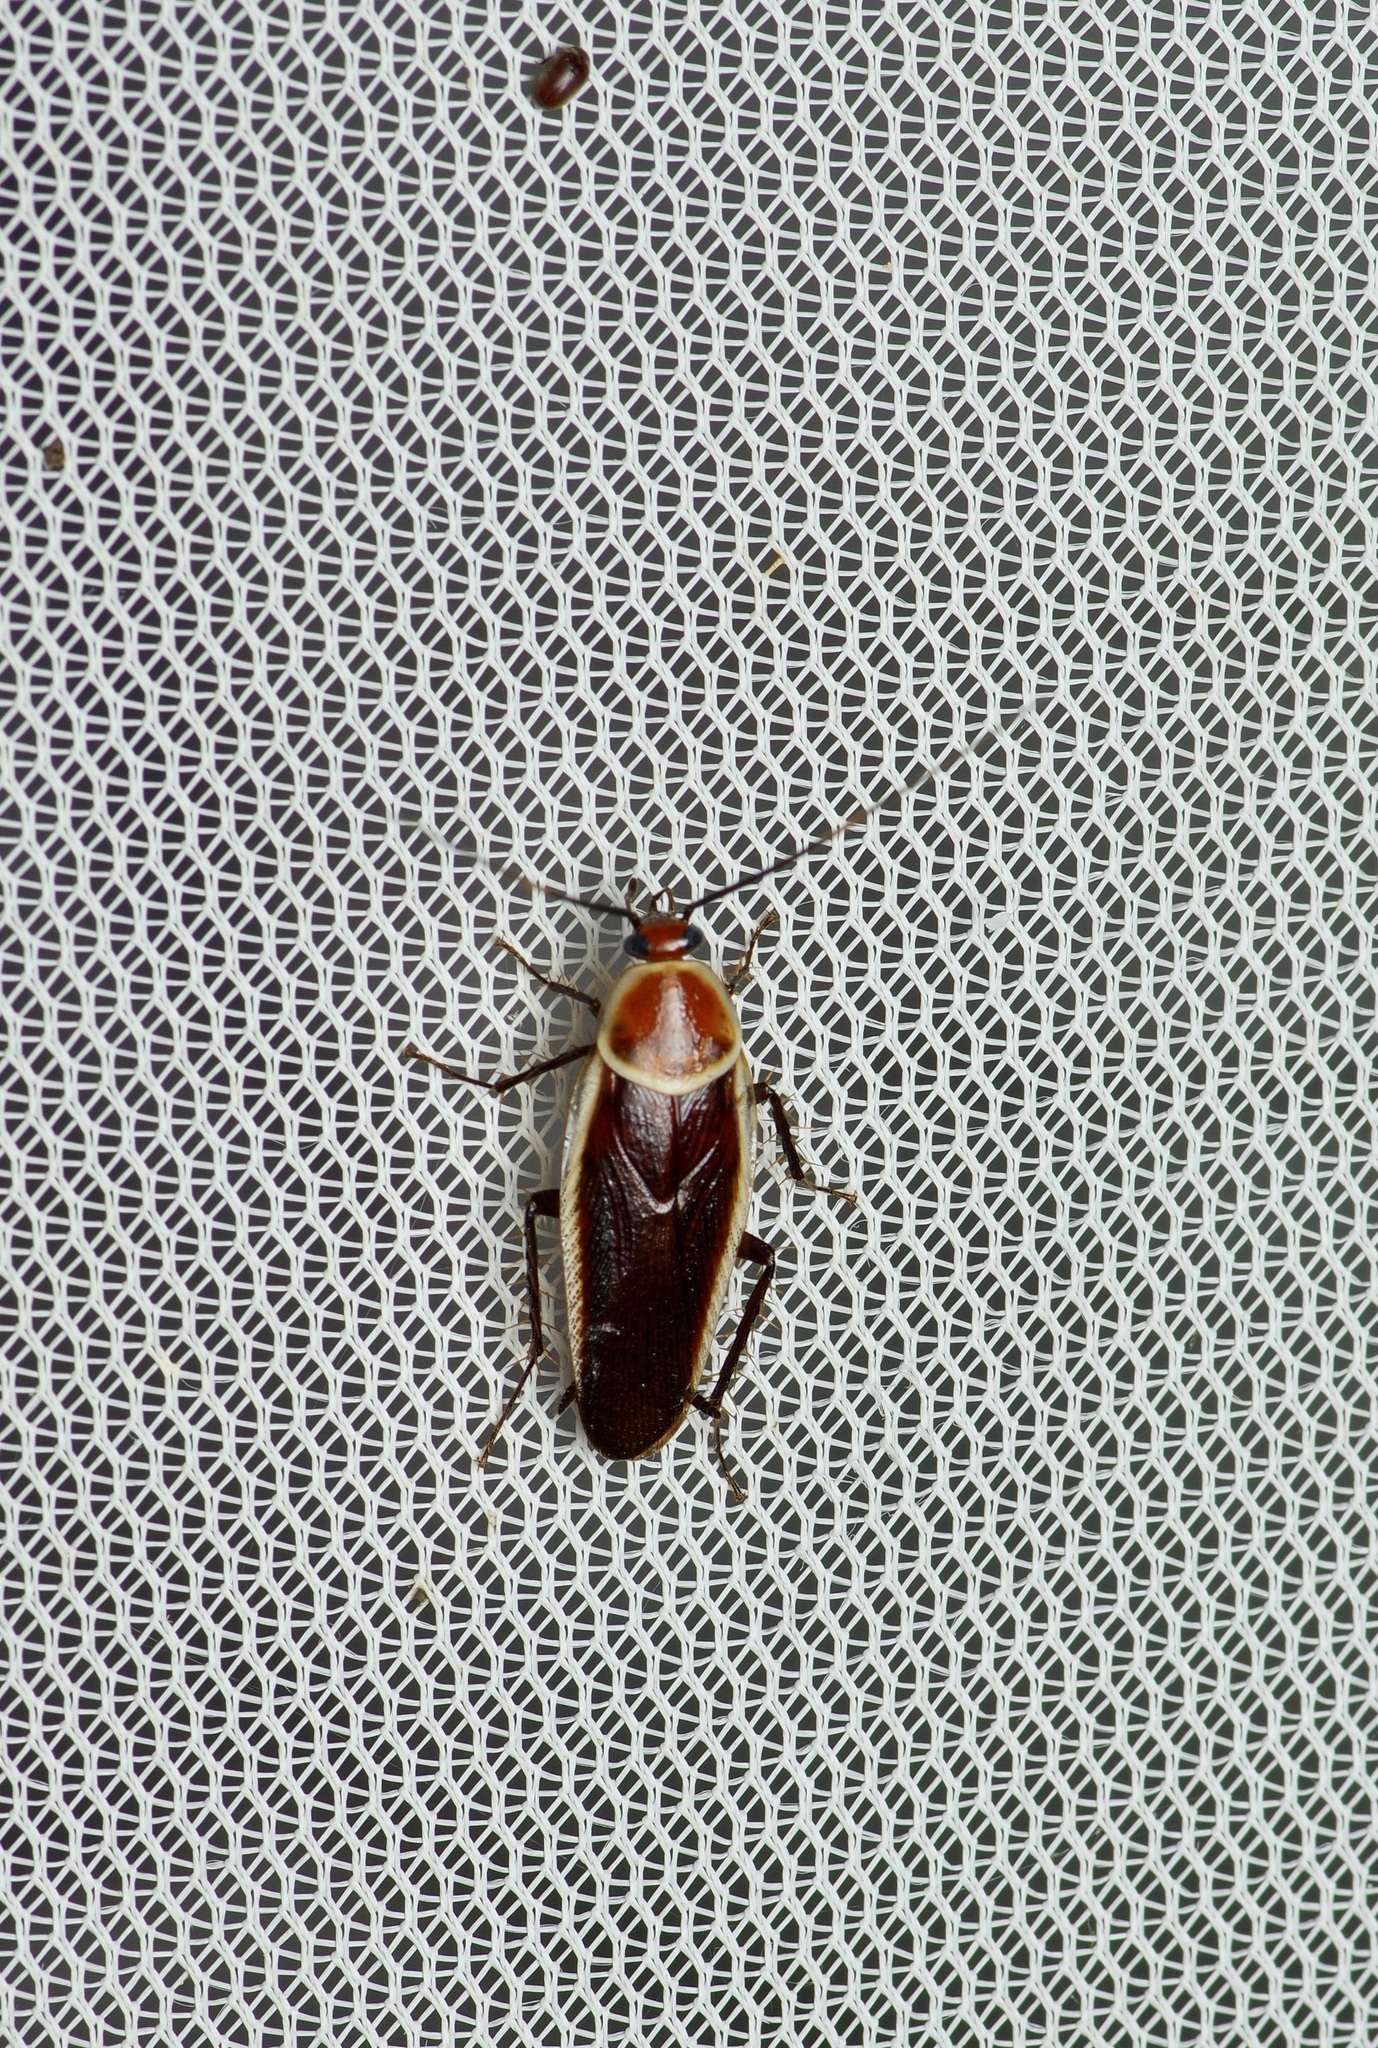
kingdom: Animalia
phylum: Arthropoda
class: Insecta
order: Blattodea
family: Ectobiidae
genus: Pseudomops
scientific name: Pseudomops septentrionalis
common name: Pale-bordered field cockroach
